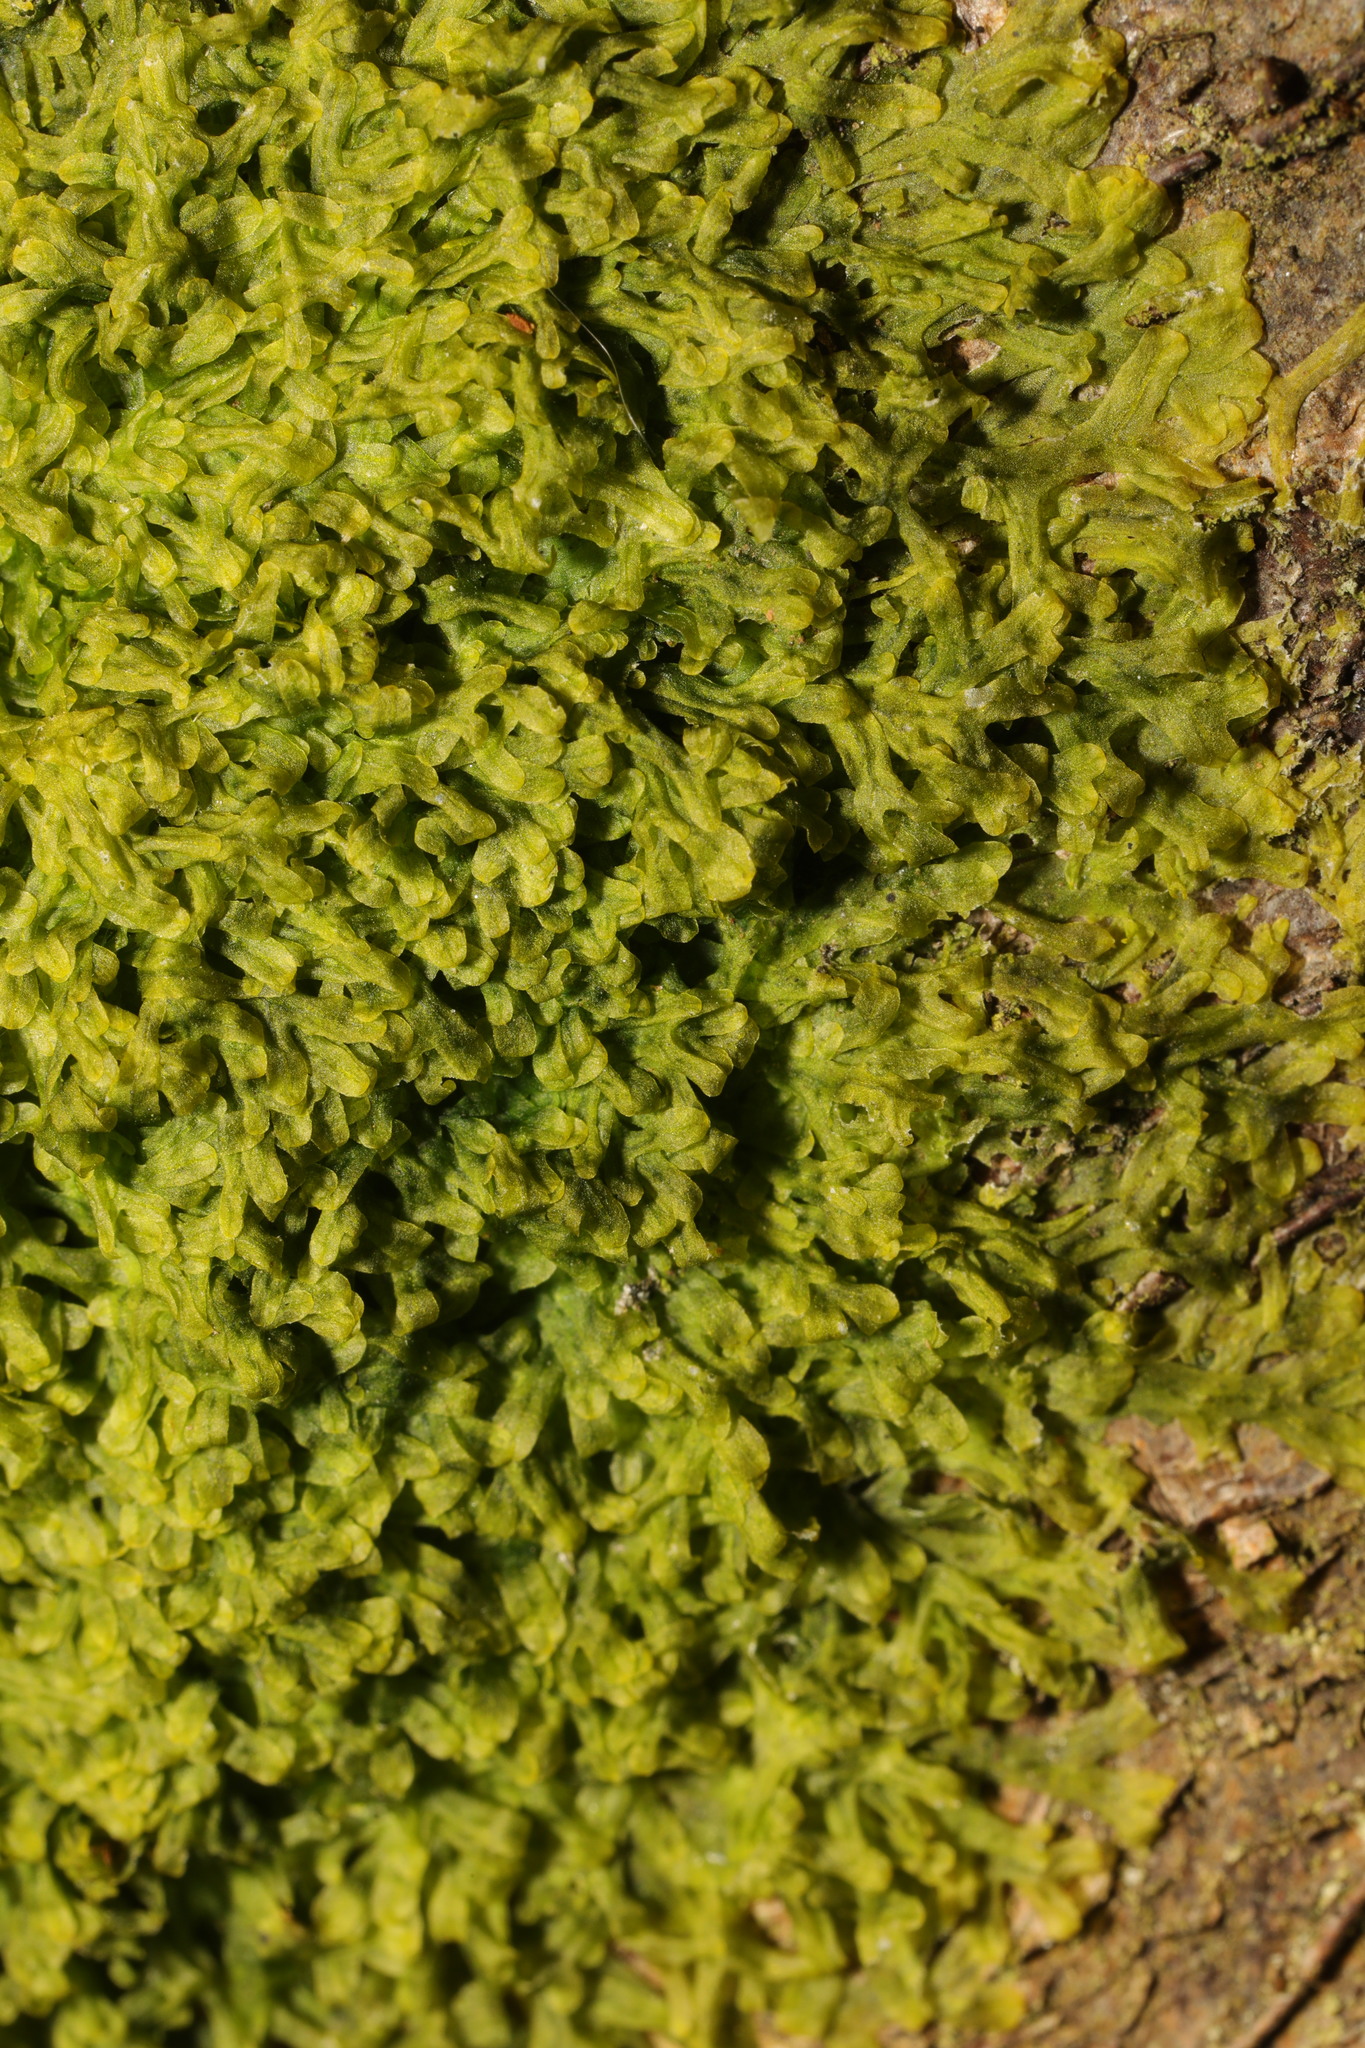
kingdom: Plantae
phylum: Marchantiophyta
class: Jungermanniopsida
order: Metzgeriales
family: Metzgeriaceae
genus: Metzgeria
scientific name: Metzgeria furcata
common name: Forked veilwort
